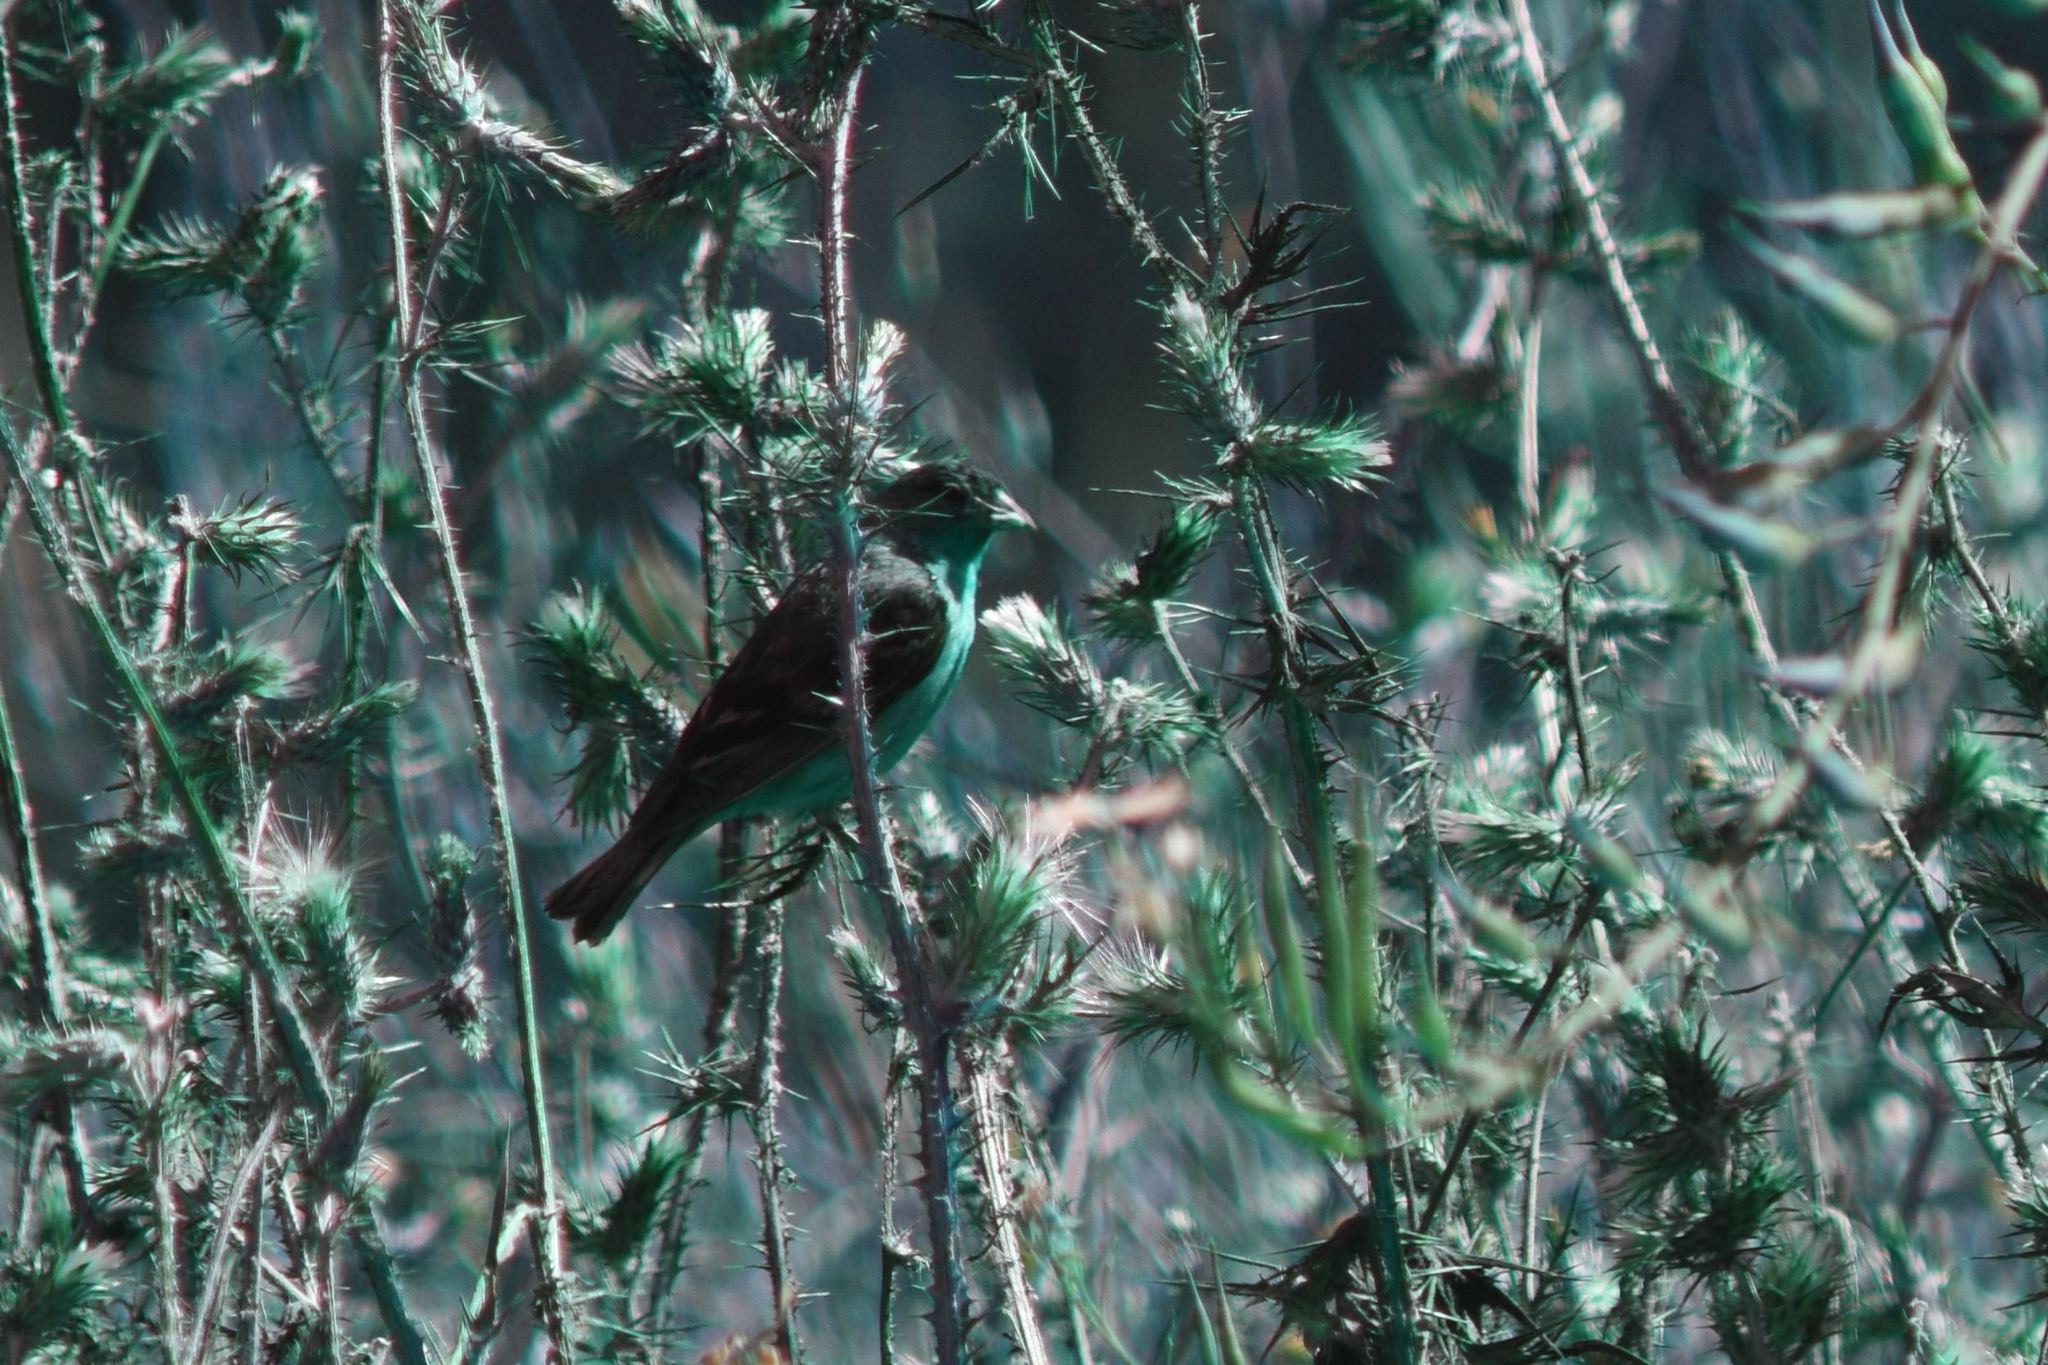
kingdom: Animalia
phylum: Chordata
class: Aves
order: Passeriformes
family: Fringillidae
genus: Spinus
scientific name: Spinus psaltria
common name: Lesser goldfinch
